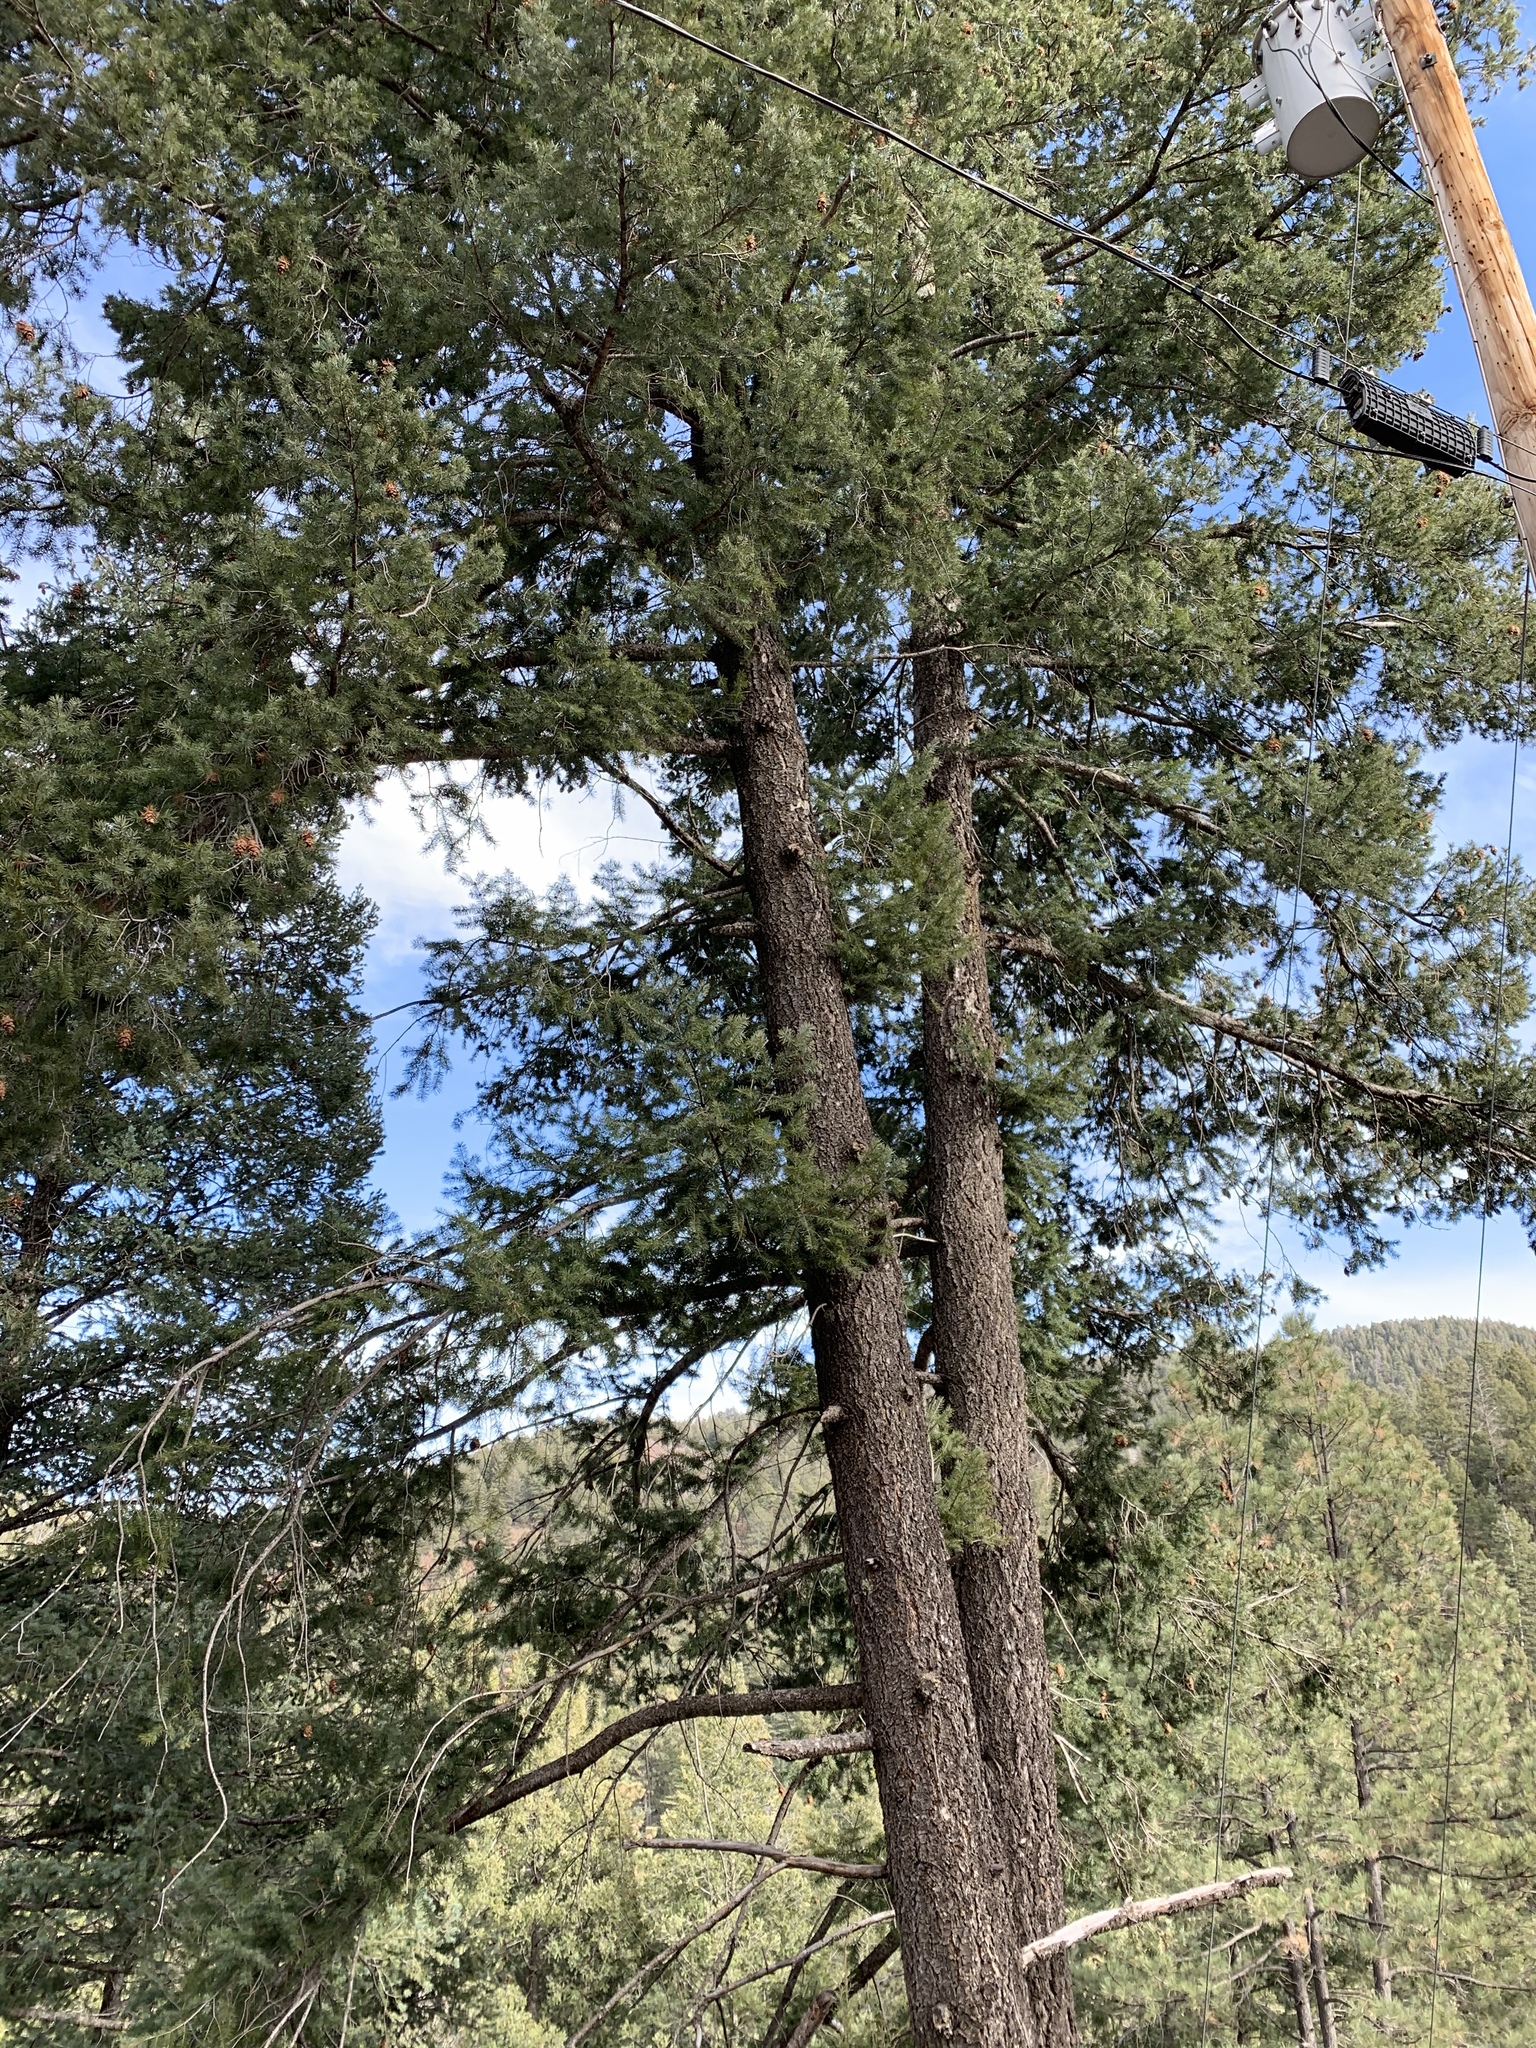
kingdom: Plantae
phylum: Tracheophyta
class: Pinopsida
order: Pinales
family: Pinaceae
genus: Pseudotsuga
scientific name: Pseudotsuga menziesii
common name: Douglas fir
